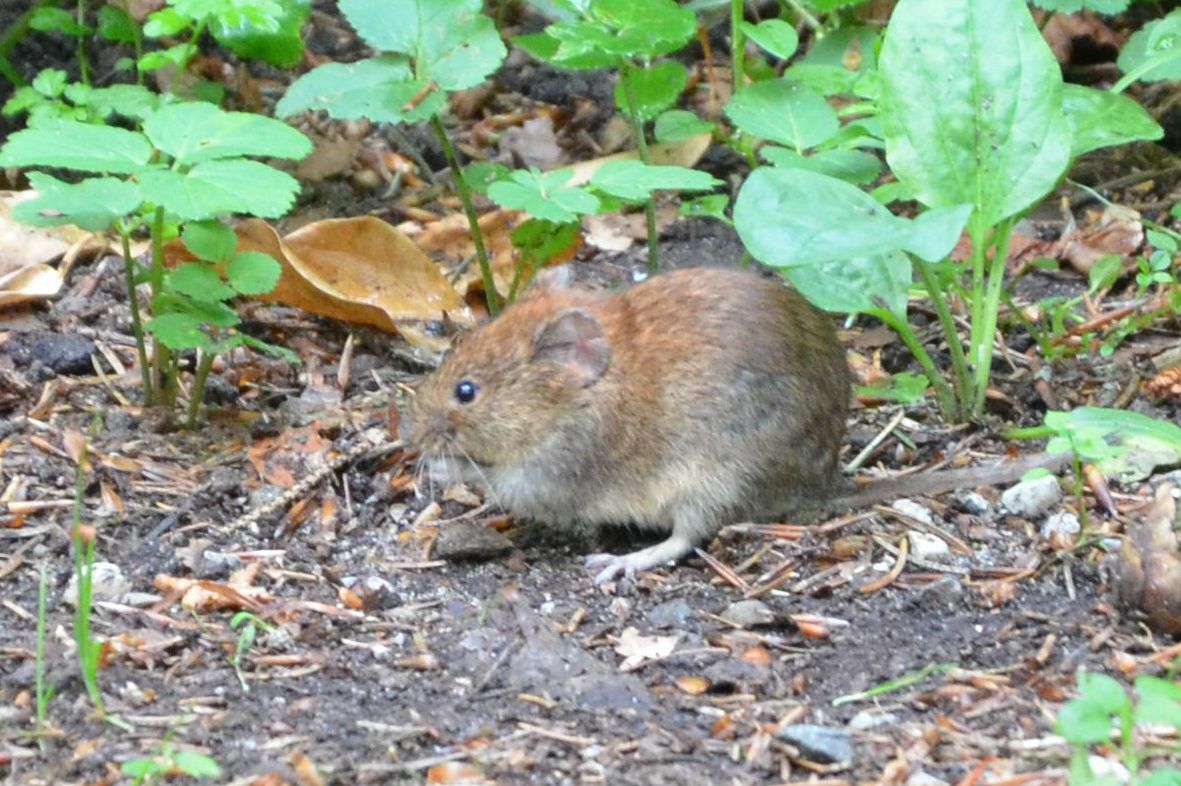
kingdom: Animalia
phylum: Chordata
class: Mammalia
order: Rodentia
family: Cricetidae
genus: Myodes
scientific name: Myodes glareolus
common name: Bank vole
